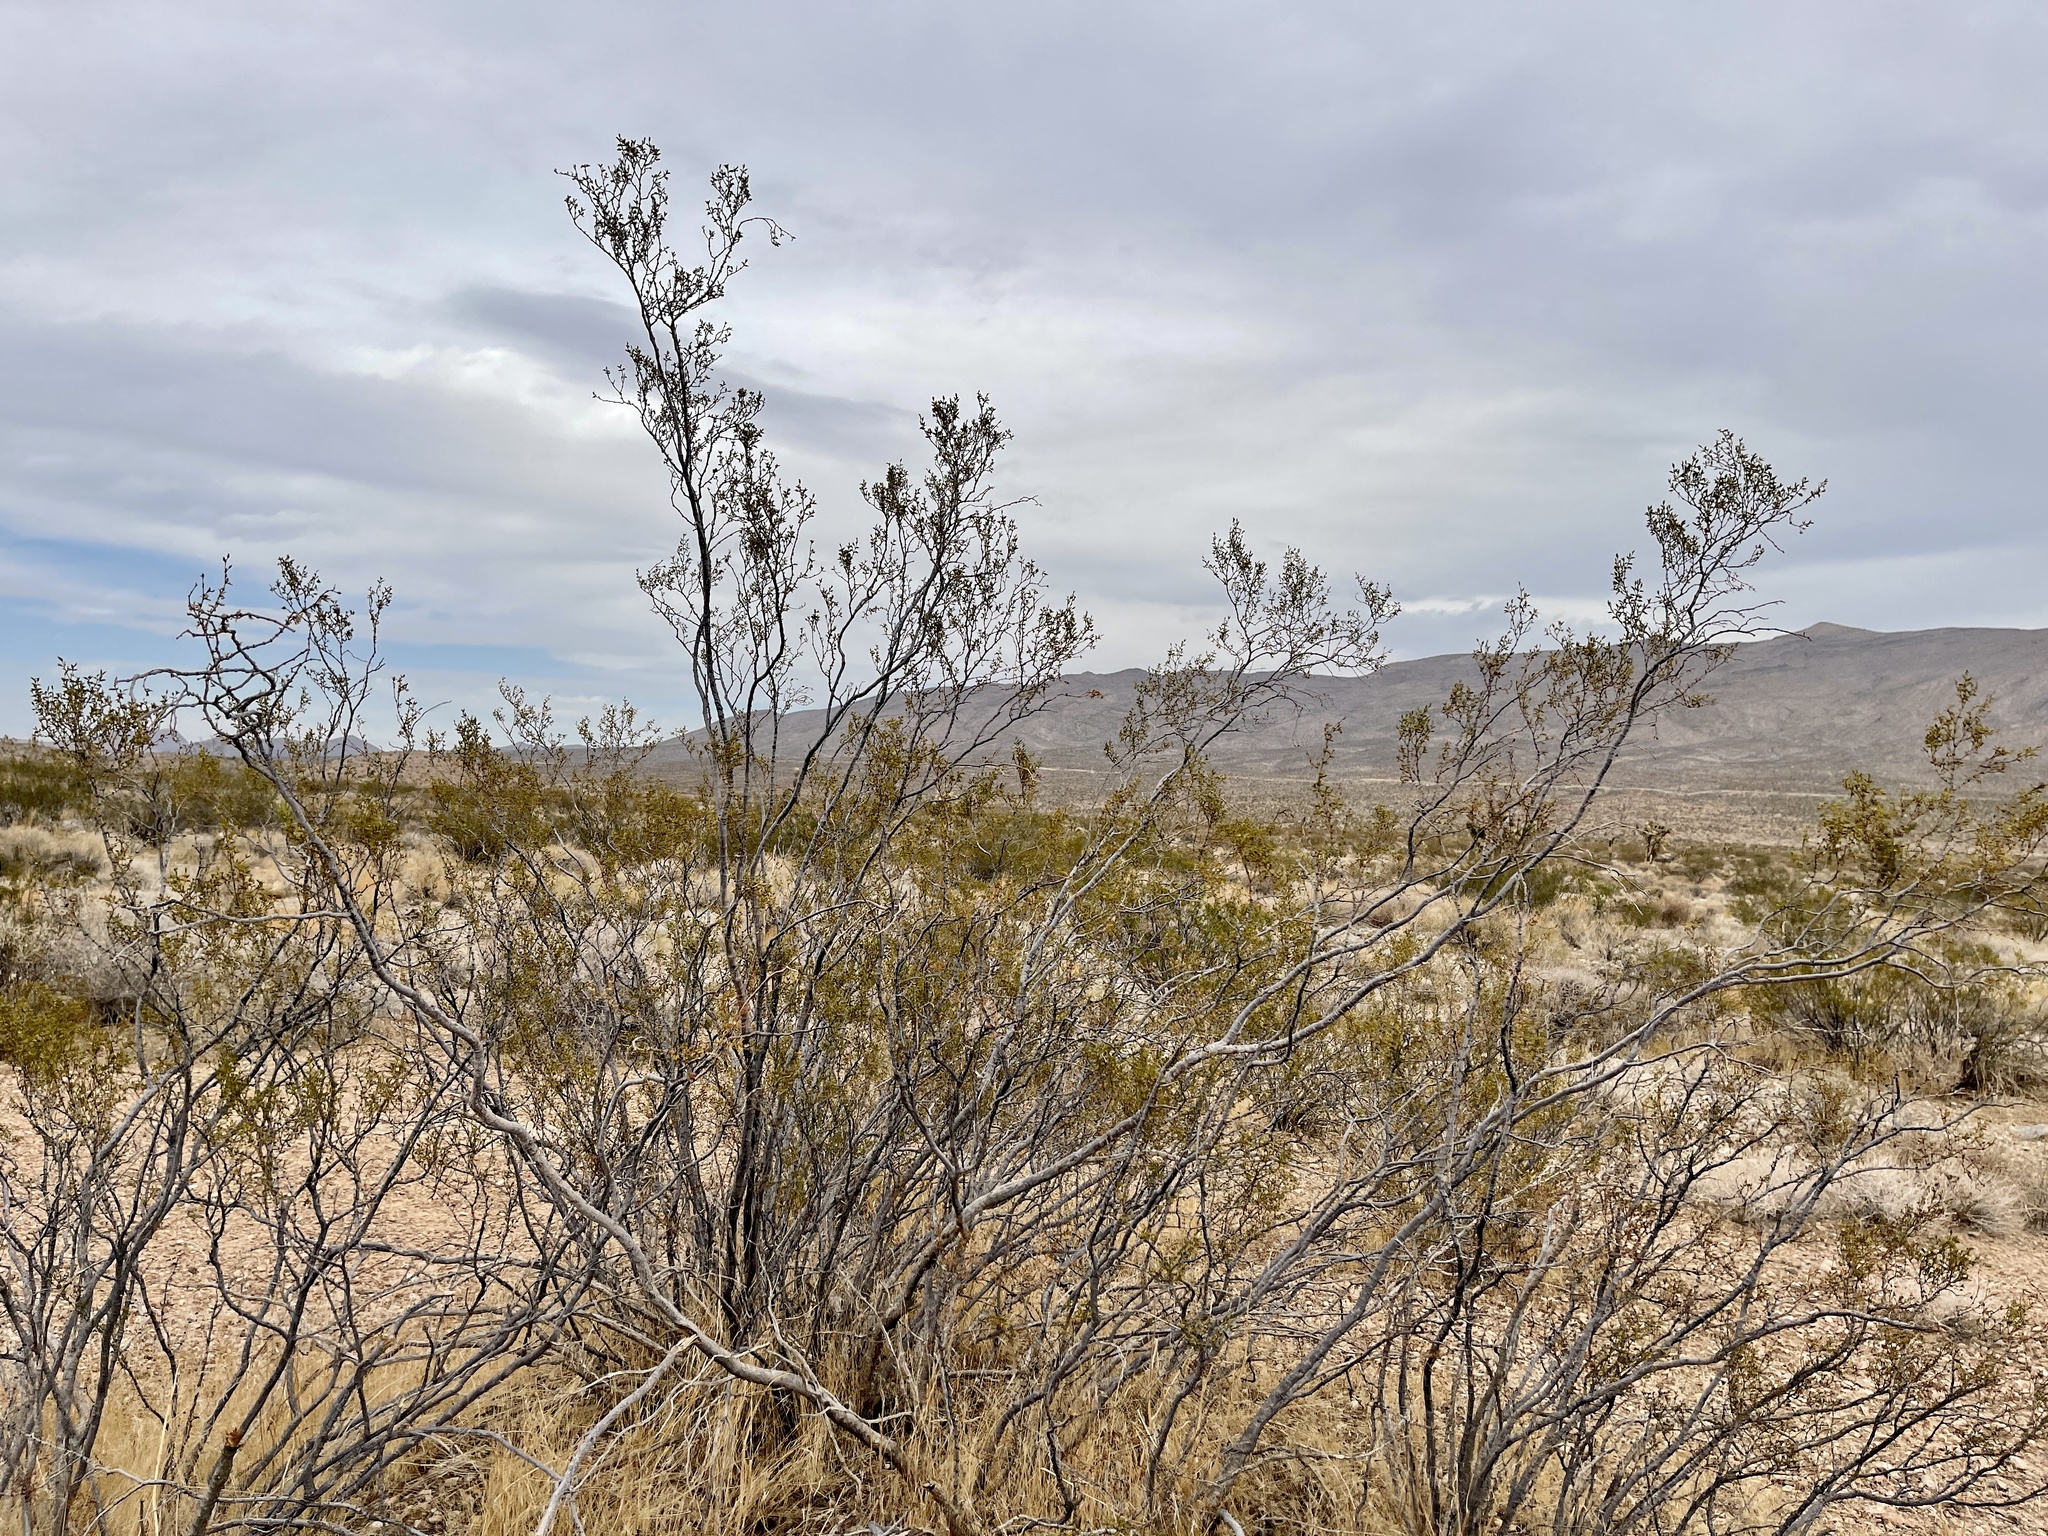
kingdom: Plantae
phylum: Tracheophyta
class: Magnoliopsida
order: Zygophyllales
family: Zygophyllaceae
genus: Larrea
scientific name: Larrea tridentata
